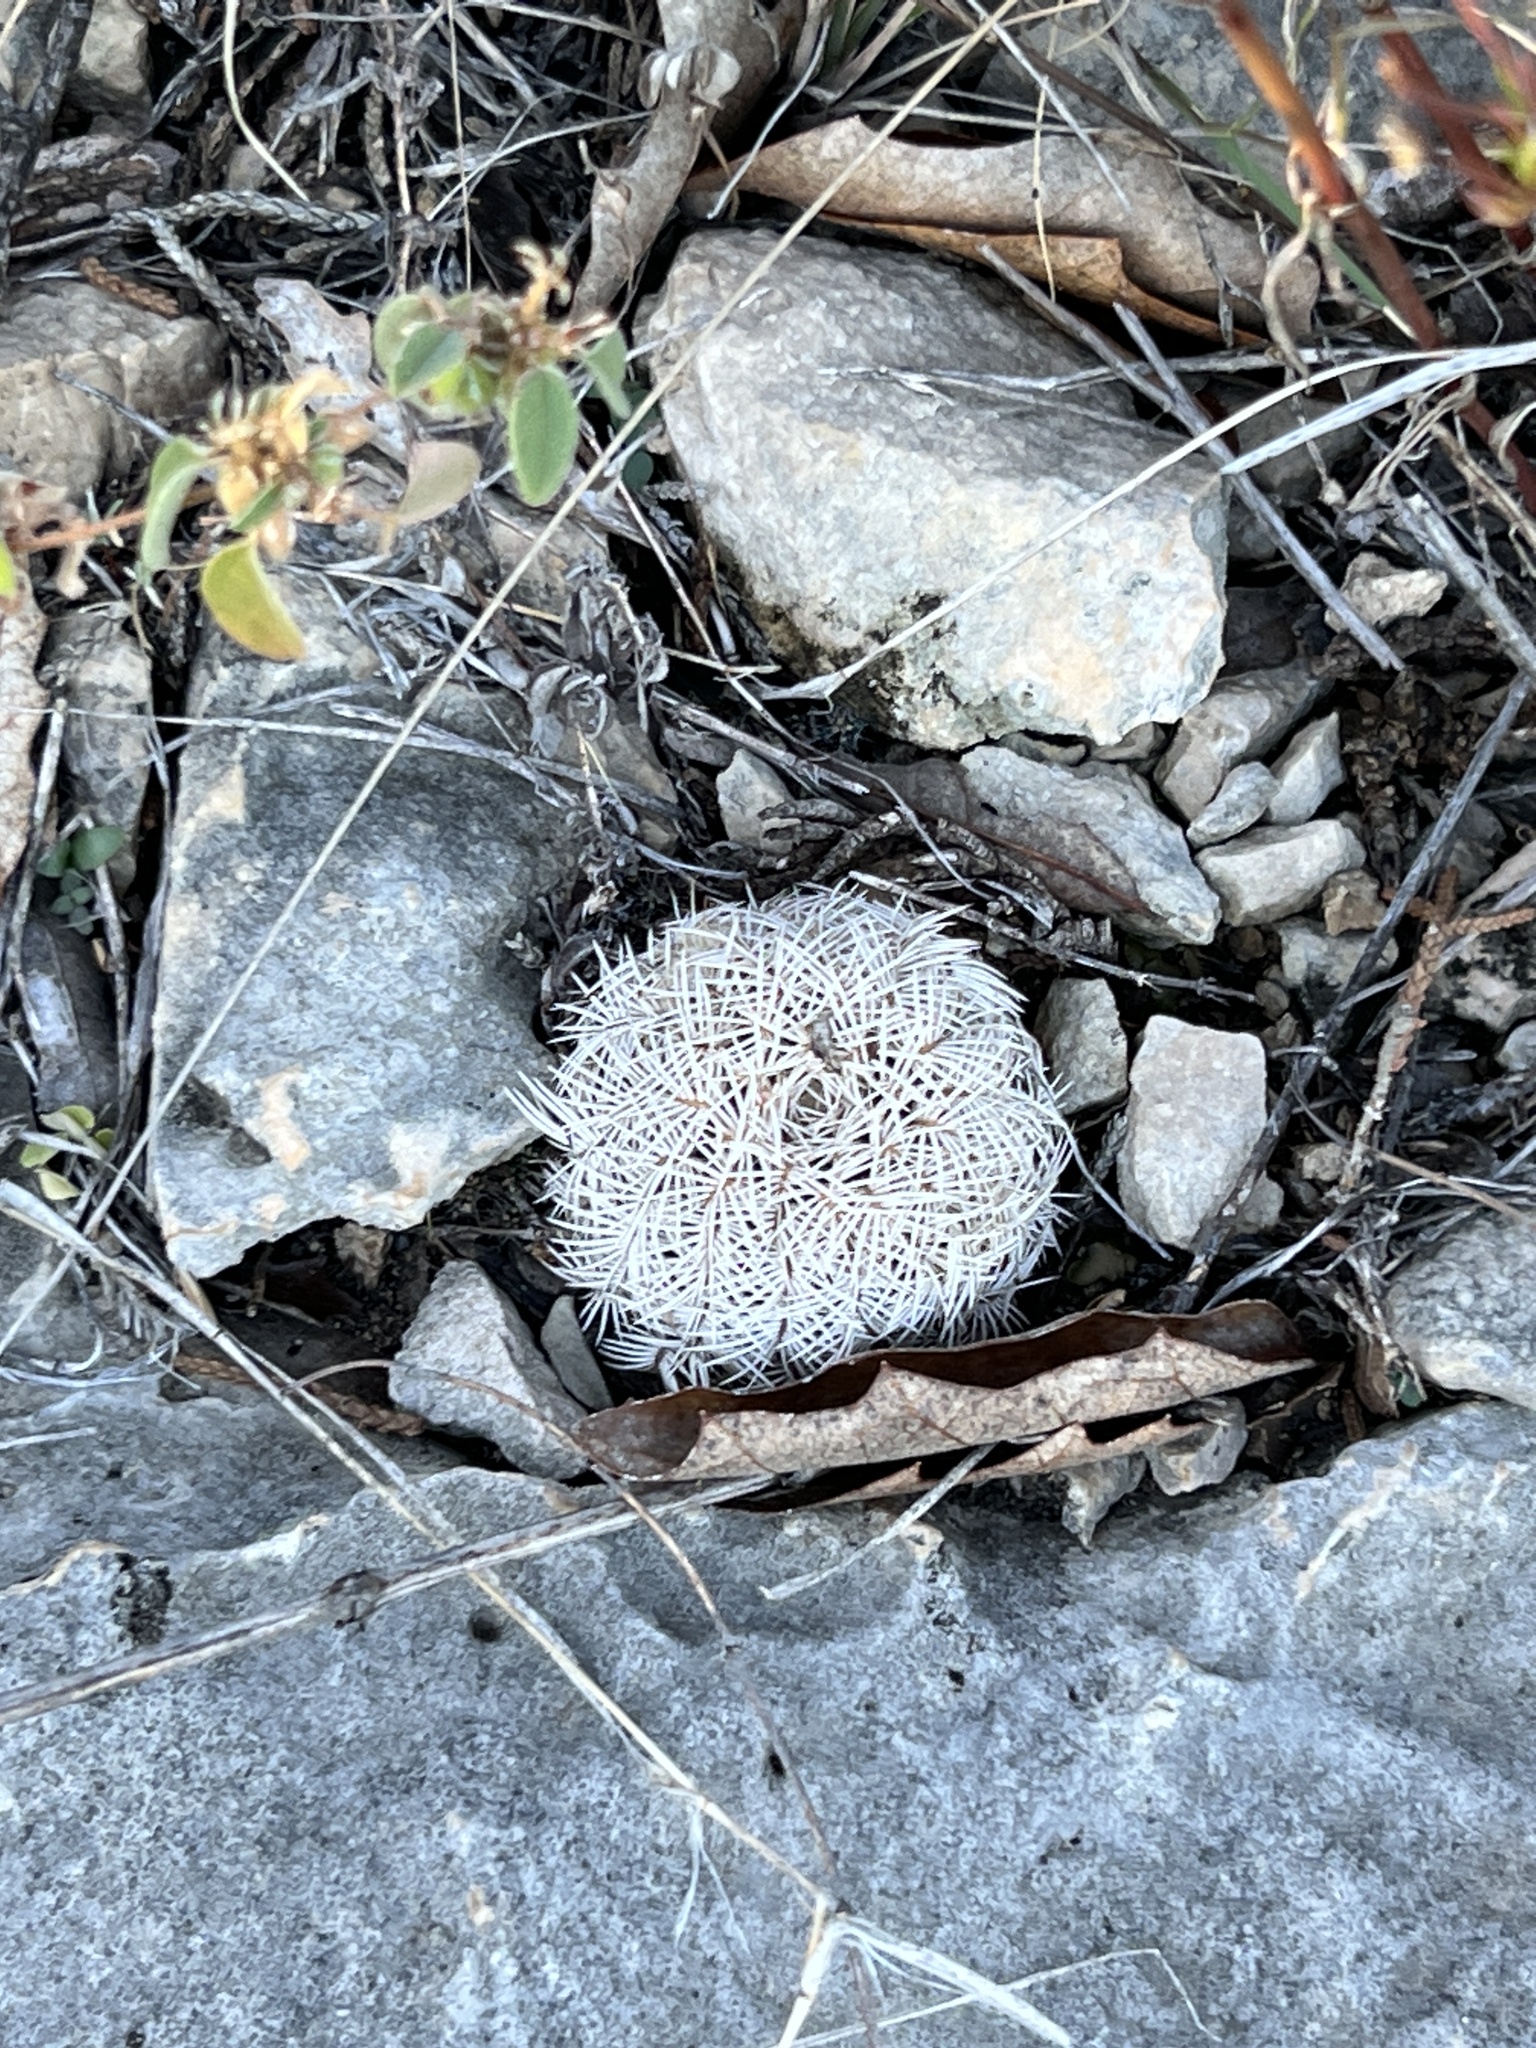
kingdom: Plantae
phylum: Tracheophyta
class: Magnoliopsida
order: Caryophyllales
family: Cactaceae
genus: Echinocereus
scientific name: Echinocereus reichenbachii
